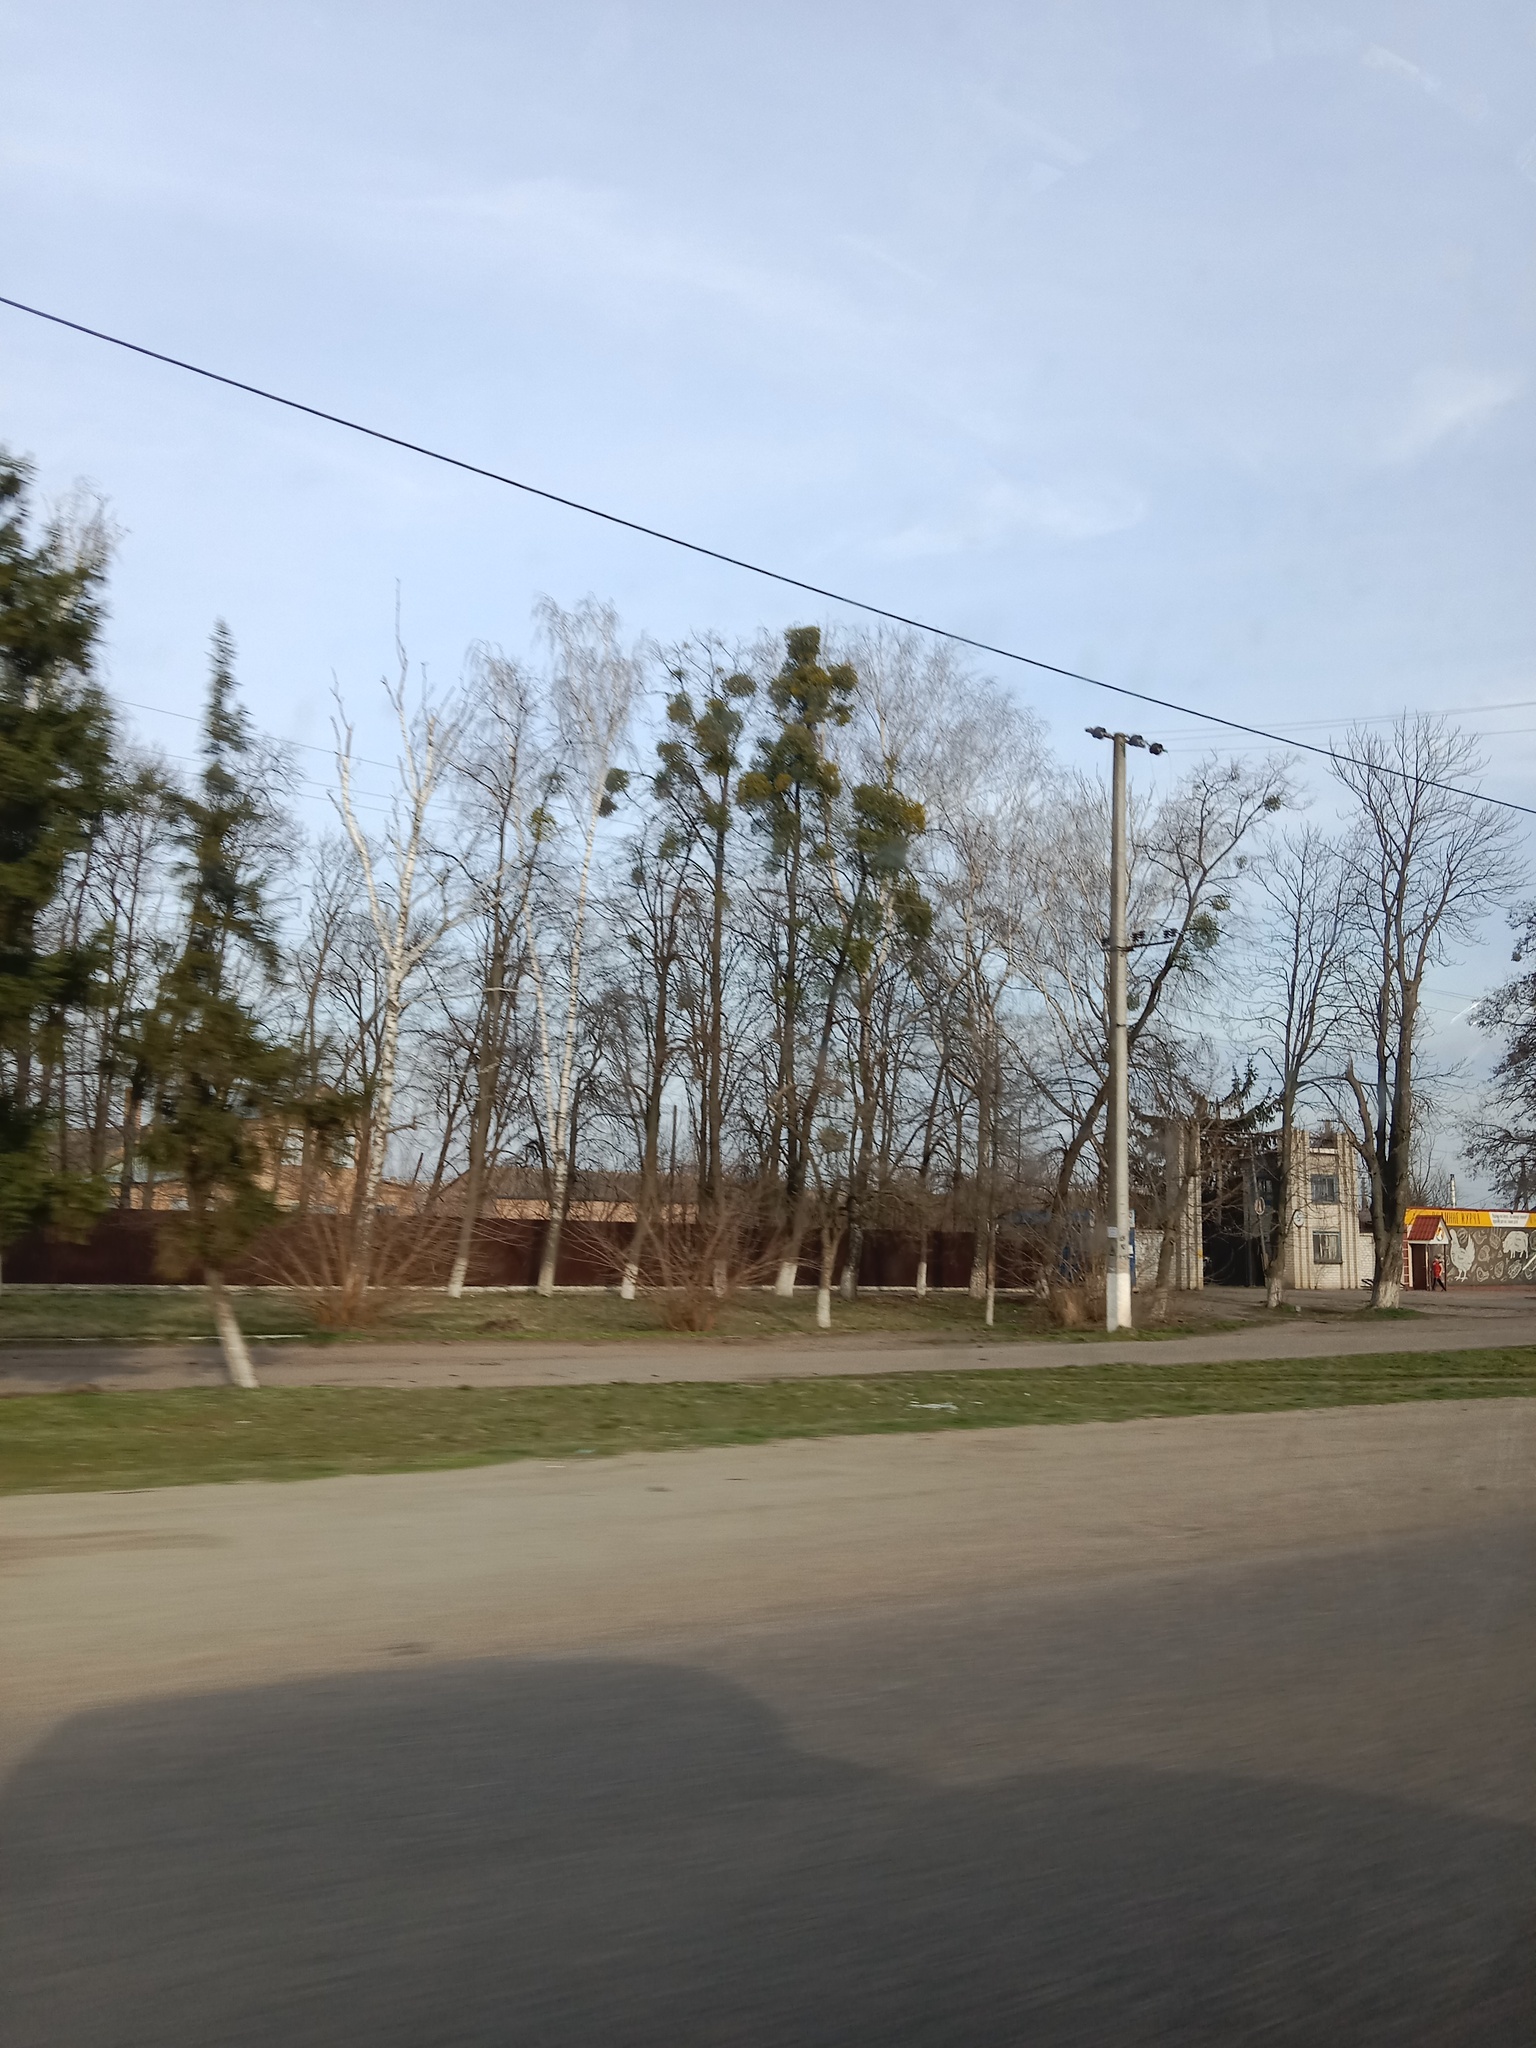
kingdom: Plantae
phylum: Tracheophyta
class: Magnoliopsida
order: Santalales
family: Viscaceae
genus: Viscum
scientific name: Viscum album
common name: Mistletoe
